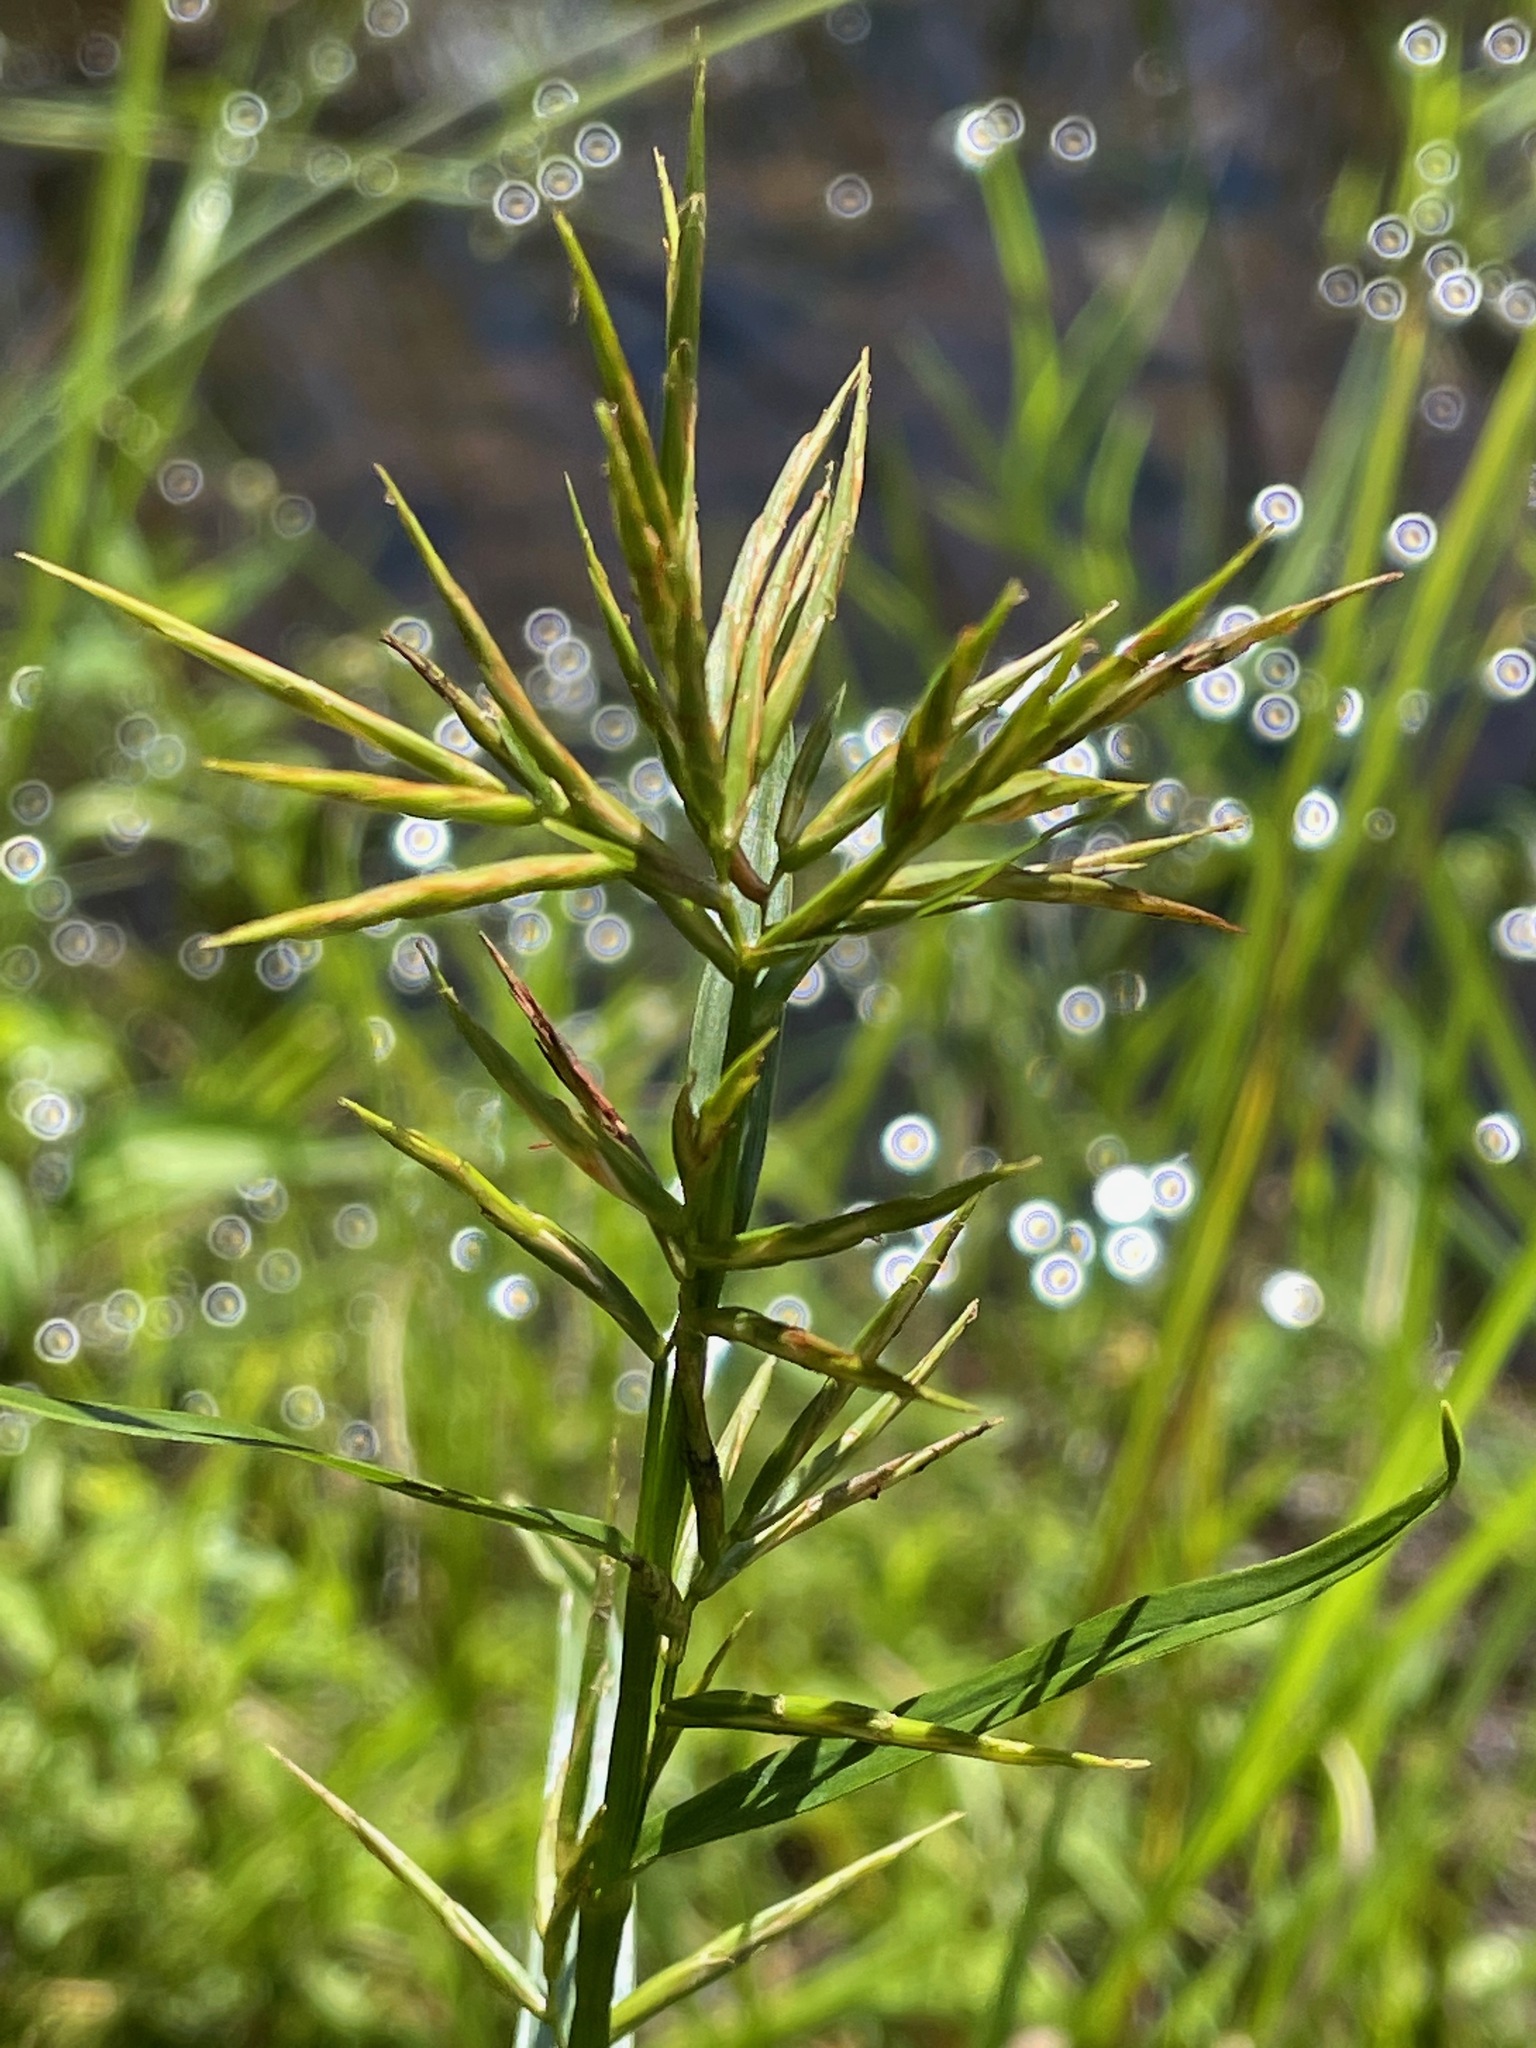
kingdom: Plantae
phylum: Tracheophyta
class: Liliopsida
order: Poales
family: Cyperaceae
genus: Dulichium
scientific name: Dulichium arundinaceum
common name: Three-way sedge
